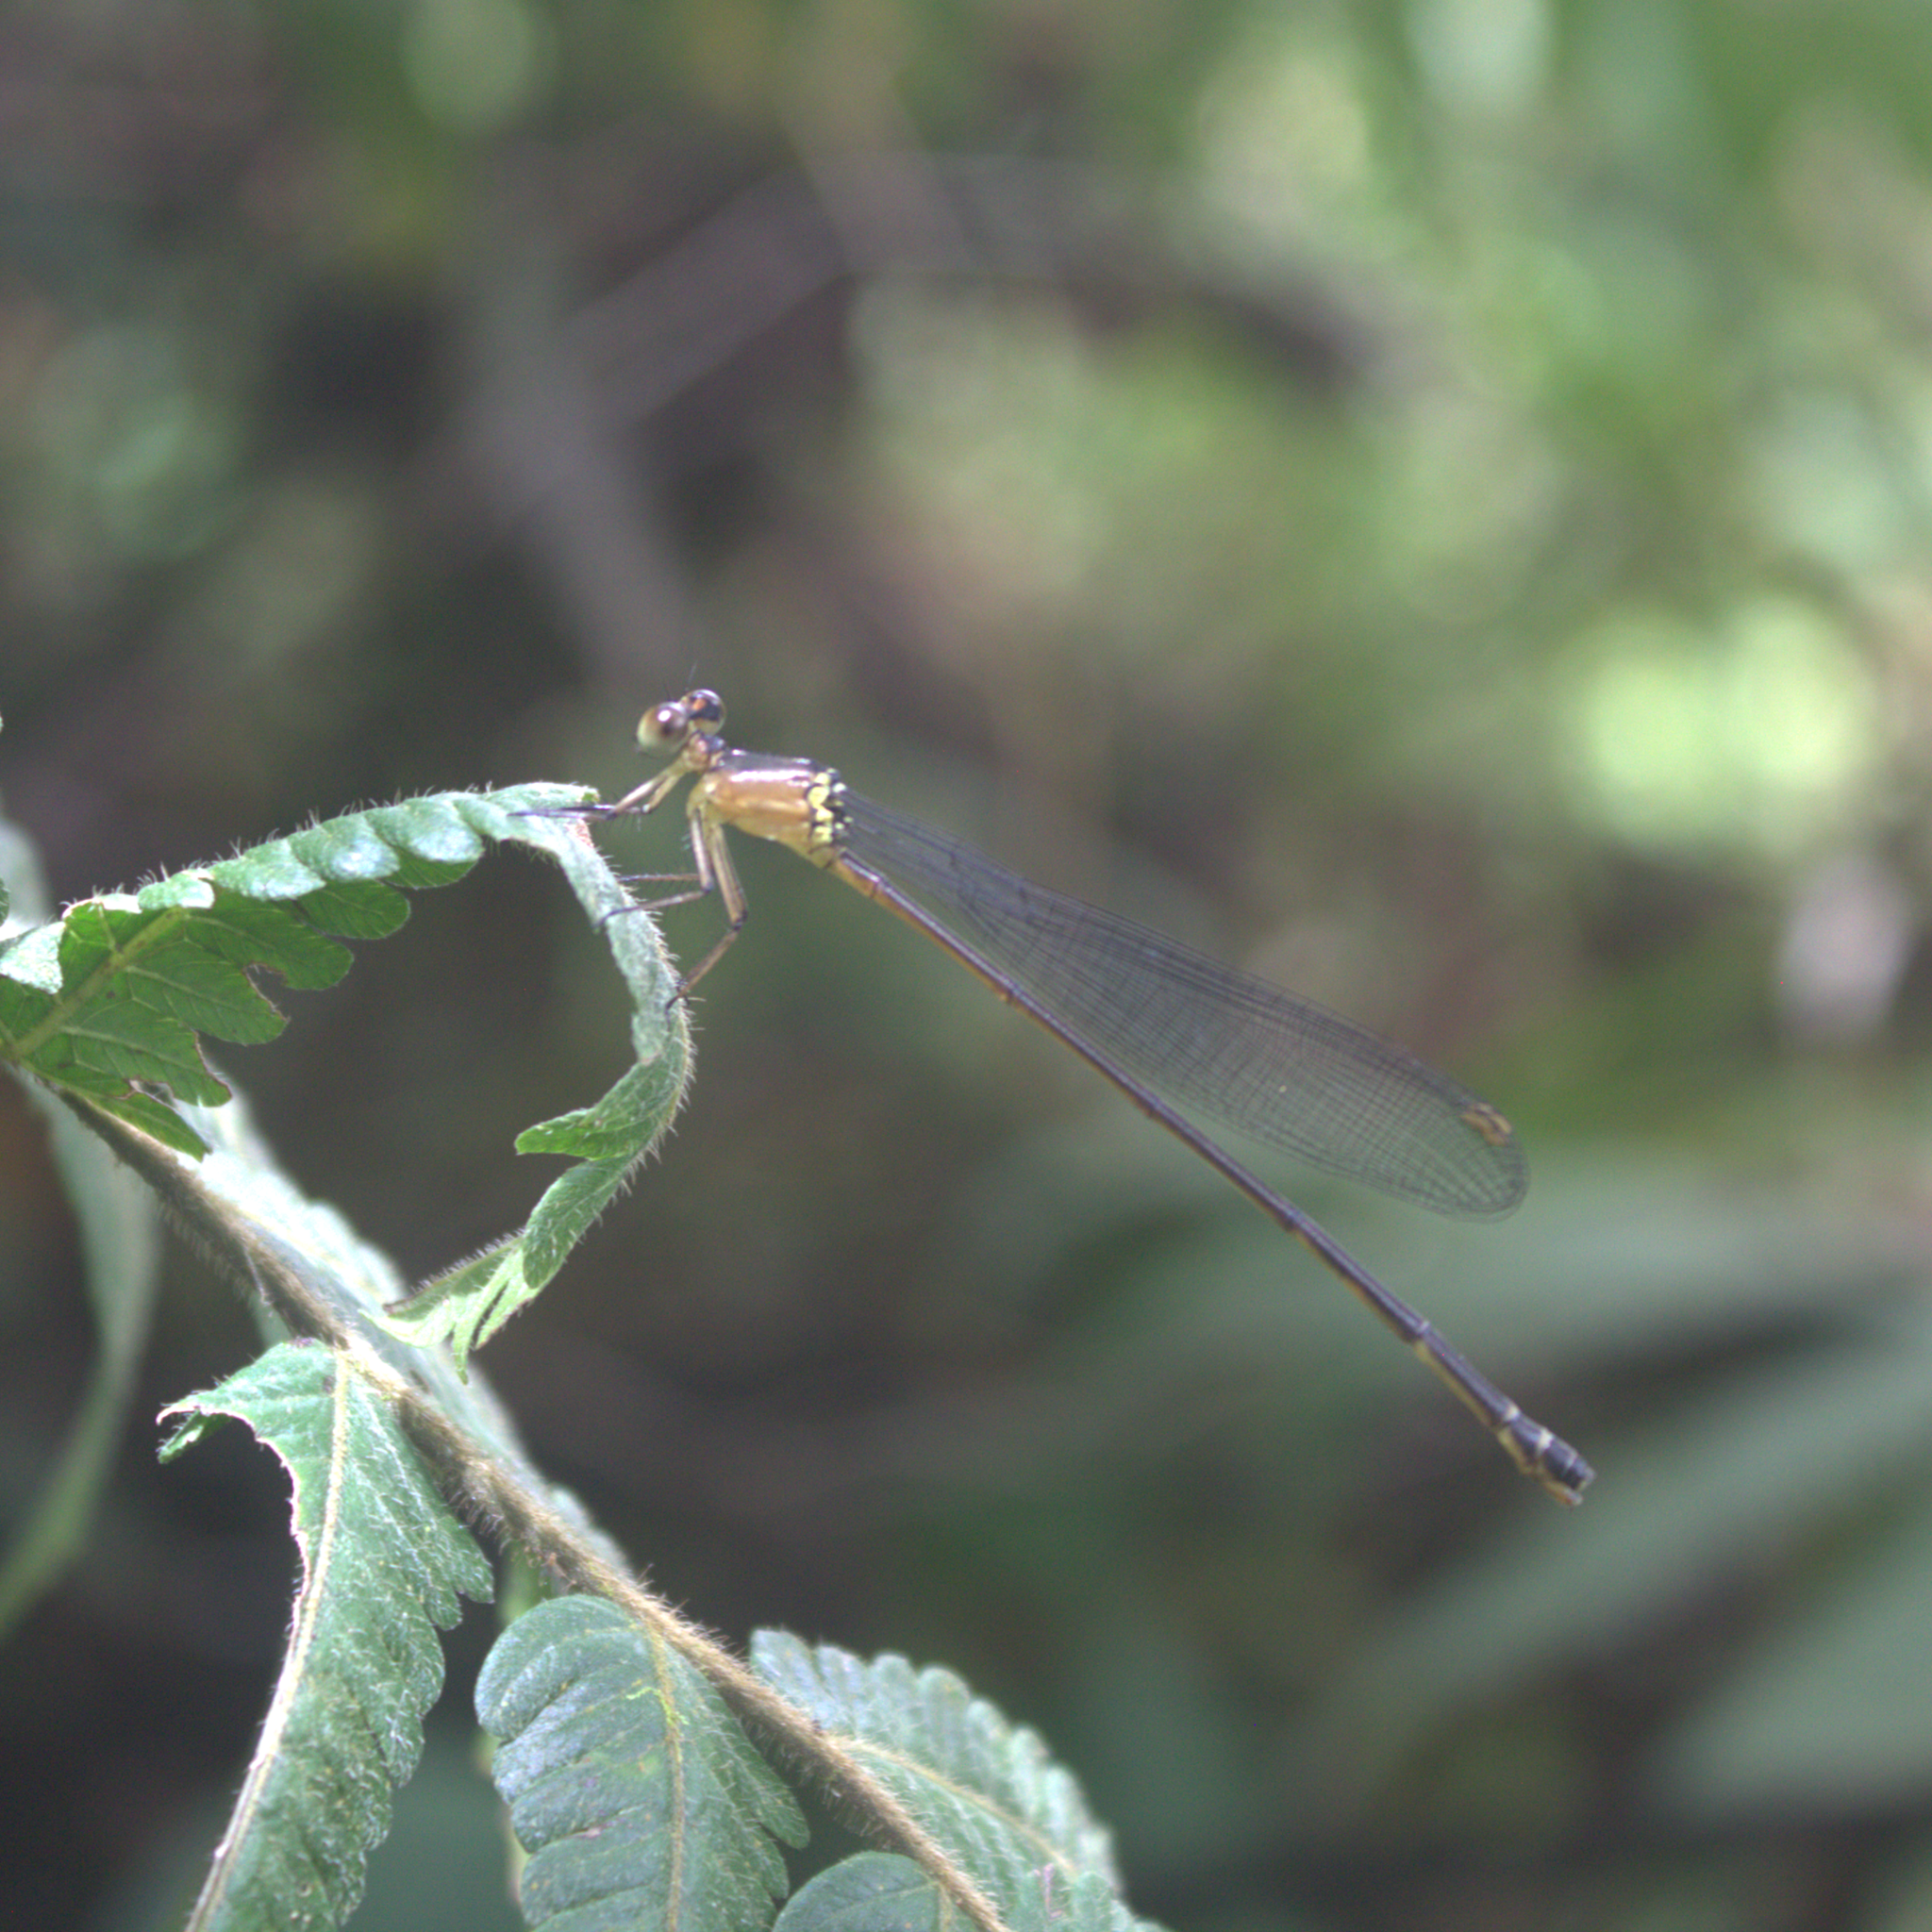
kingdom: Animalia
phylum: Arthropoda
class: Insecta
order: Odonata
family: Platycnemididae
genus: Igneocnemis
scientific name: Igneocnemis atripes
